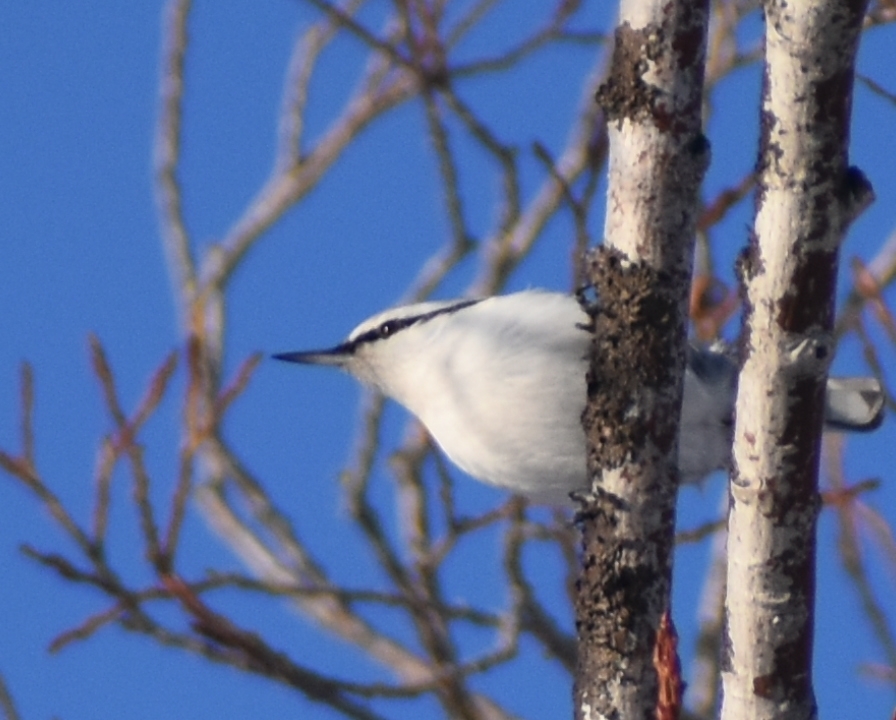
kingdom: Animalia
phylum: Chordata
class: Aves
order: Passeriformes
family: Sittidae
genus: Sitta
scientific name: Sitta europaea
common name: Eurasian nuthatch
